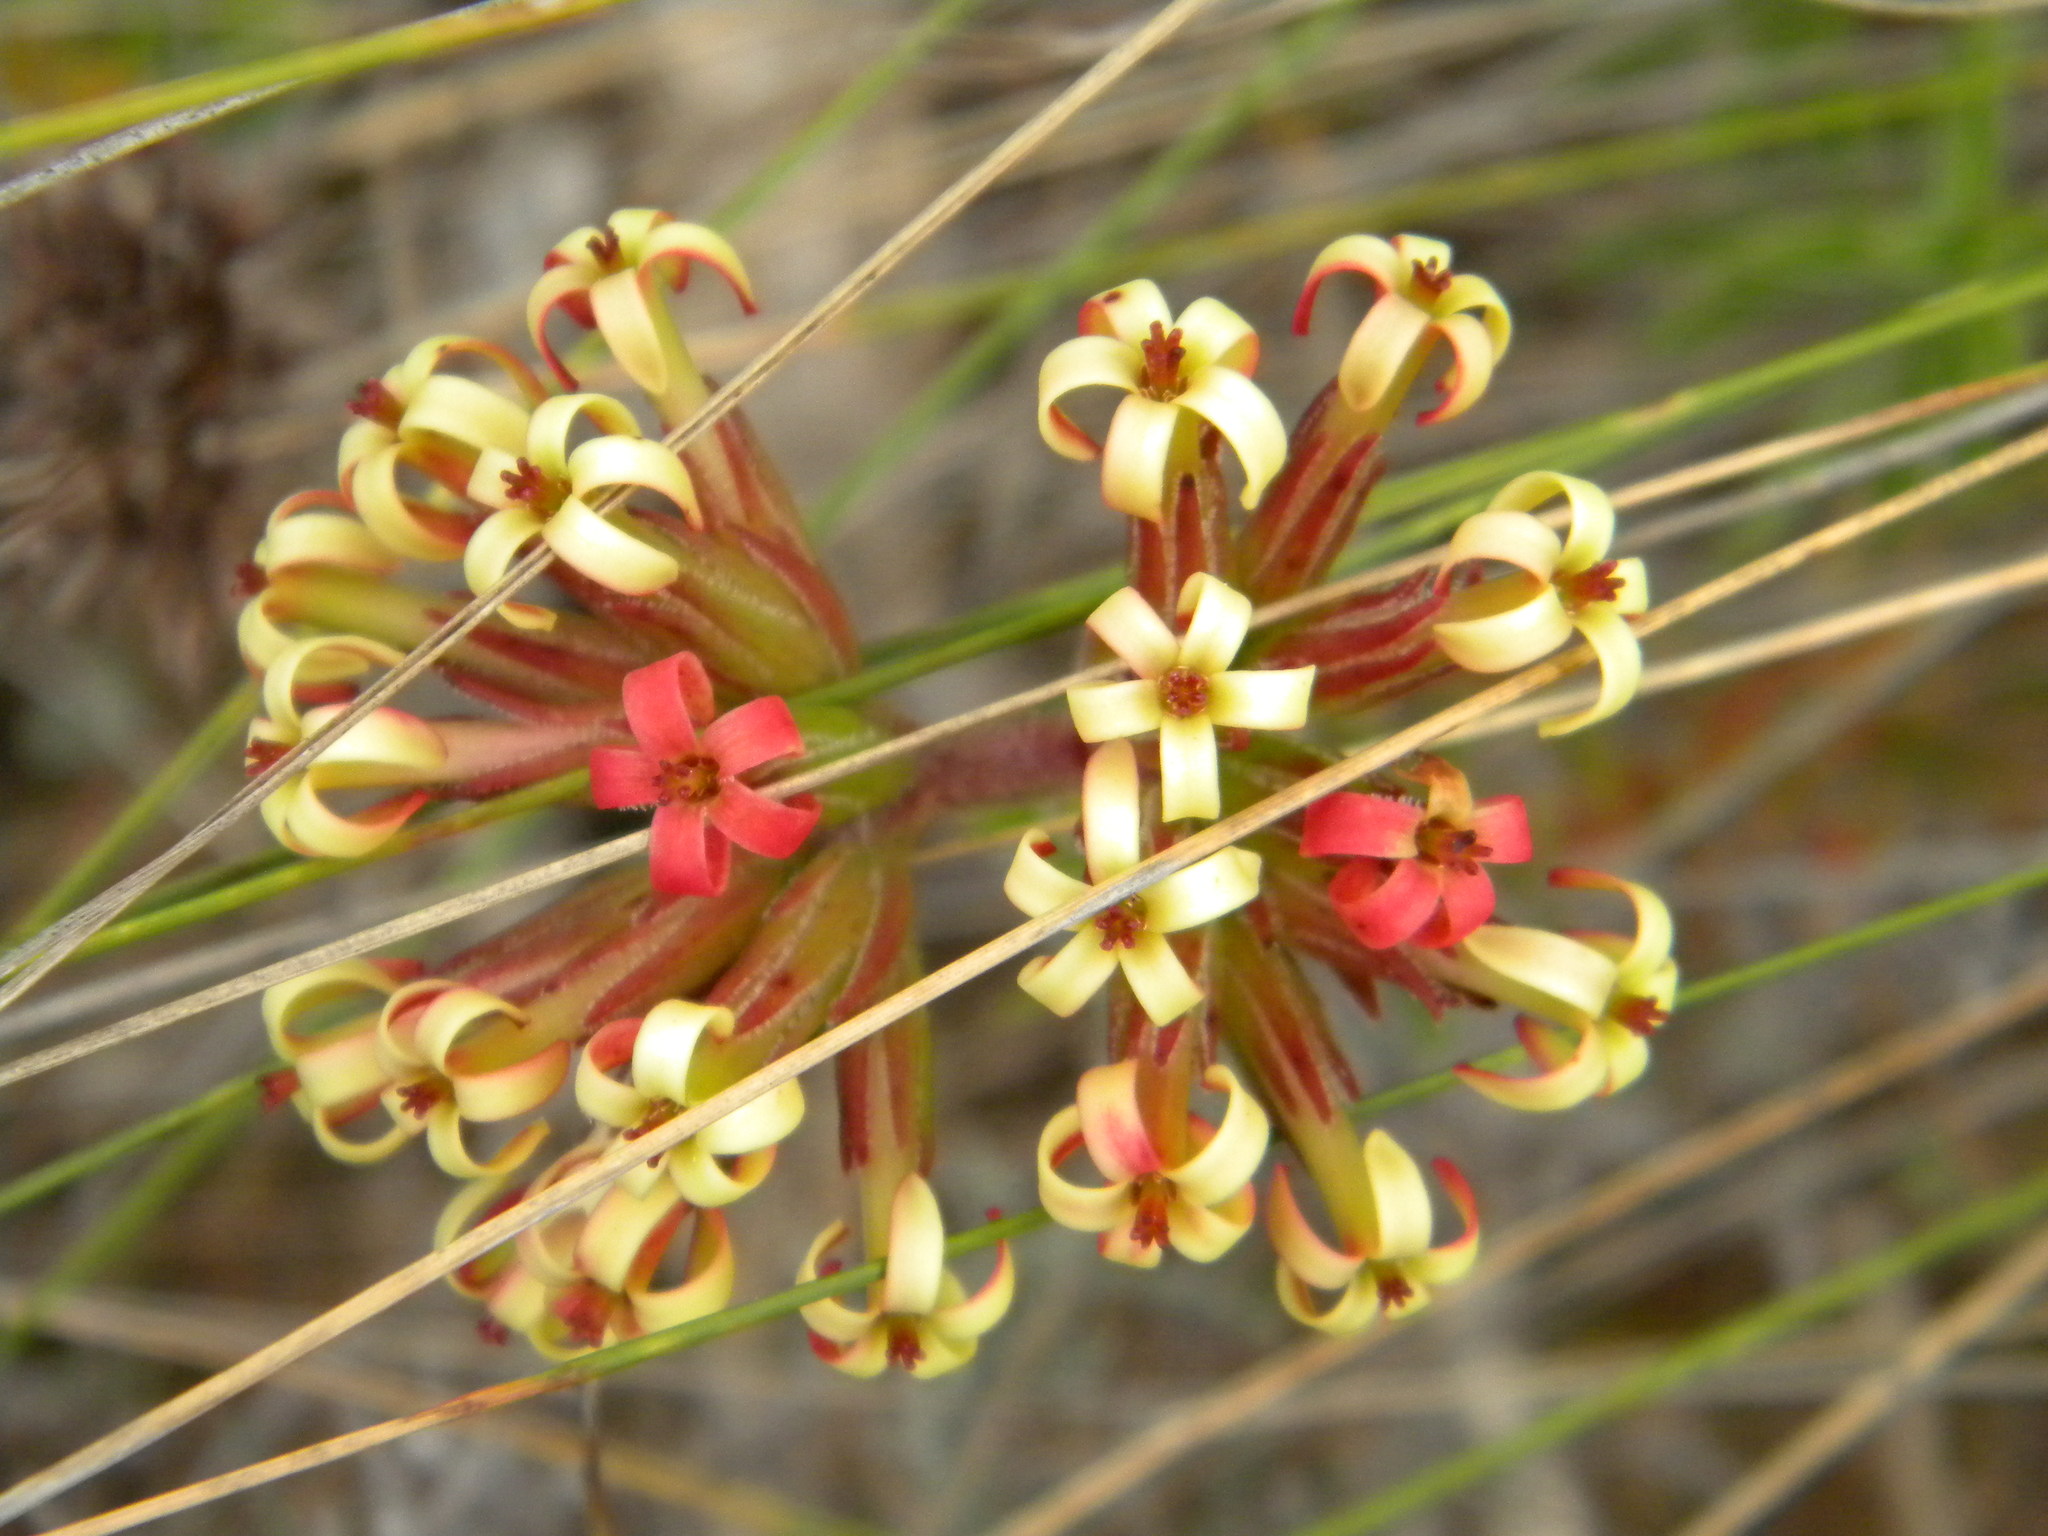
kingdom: Plantae
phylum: Tracheophyta
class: Magnoliopsida
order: Saxifragales
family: Crassulaceae
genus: Crassula
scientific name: Crassula fascicularis
